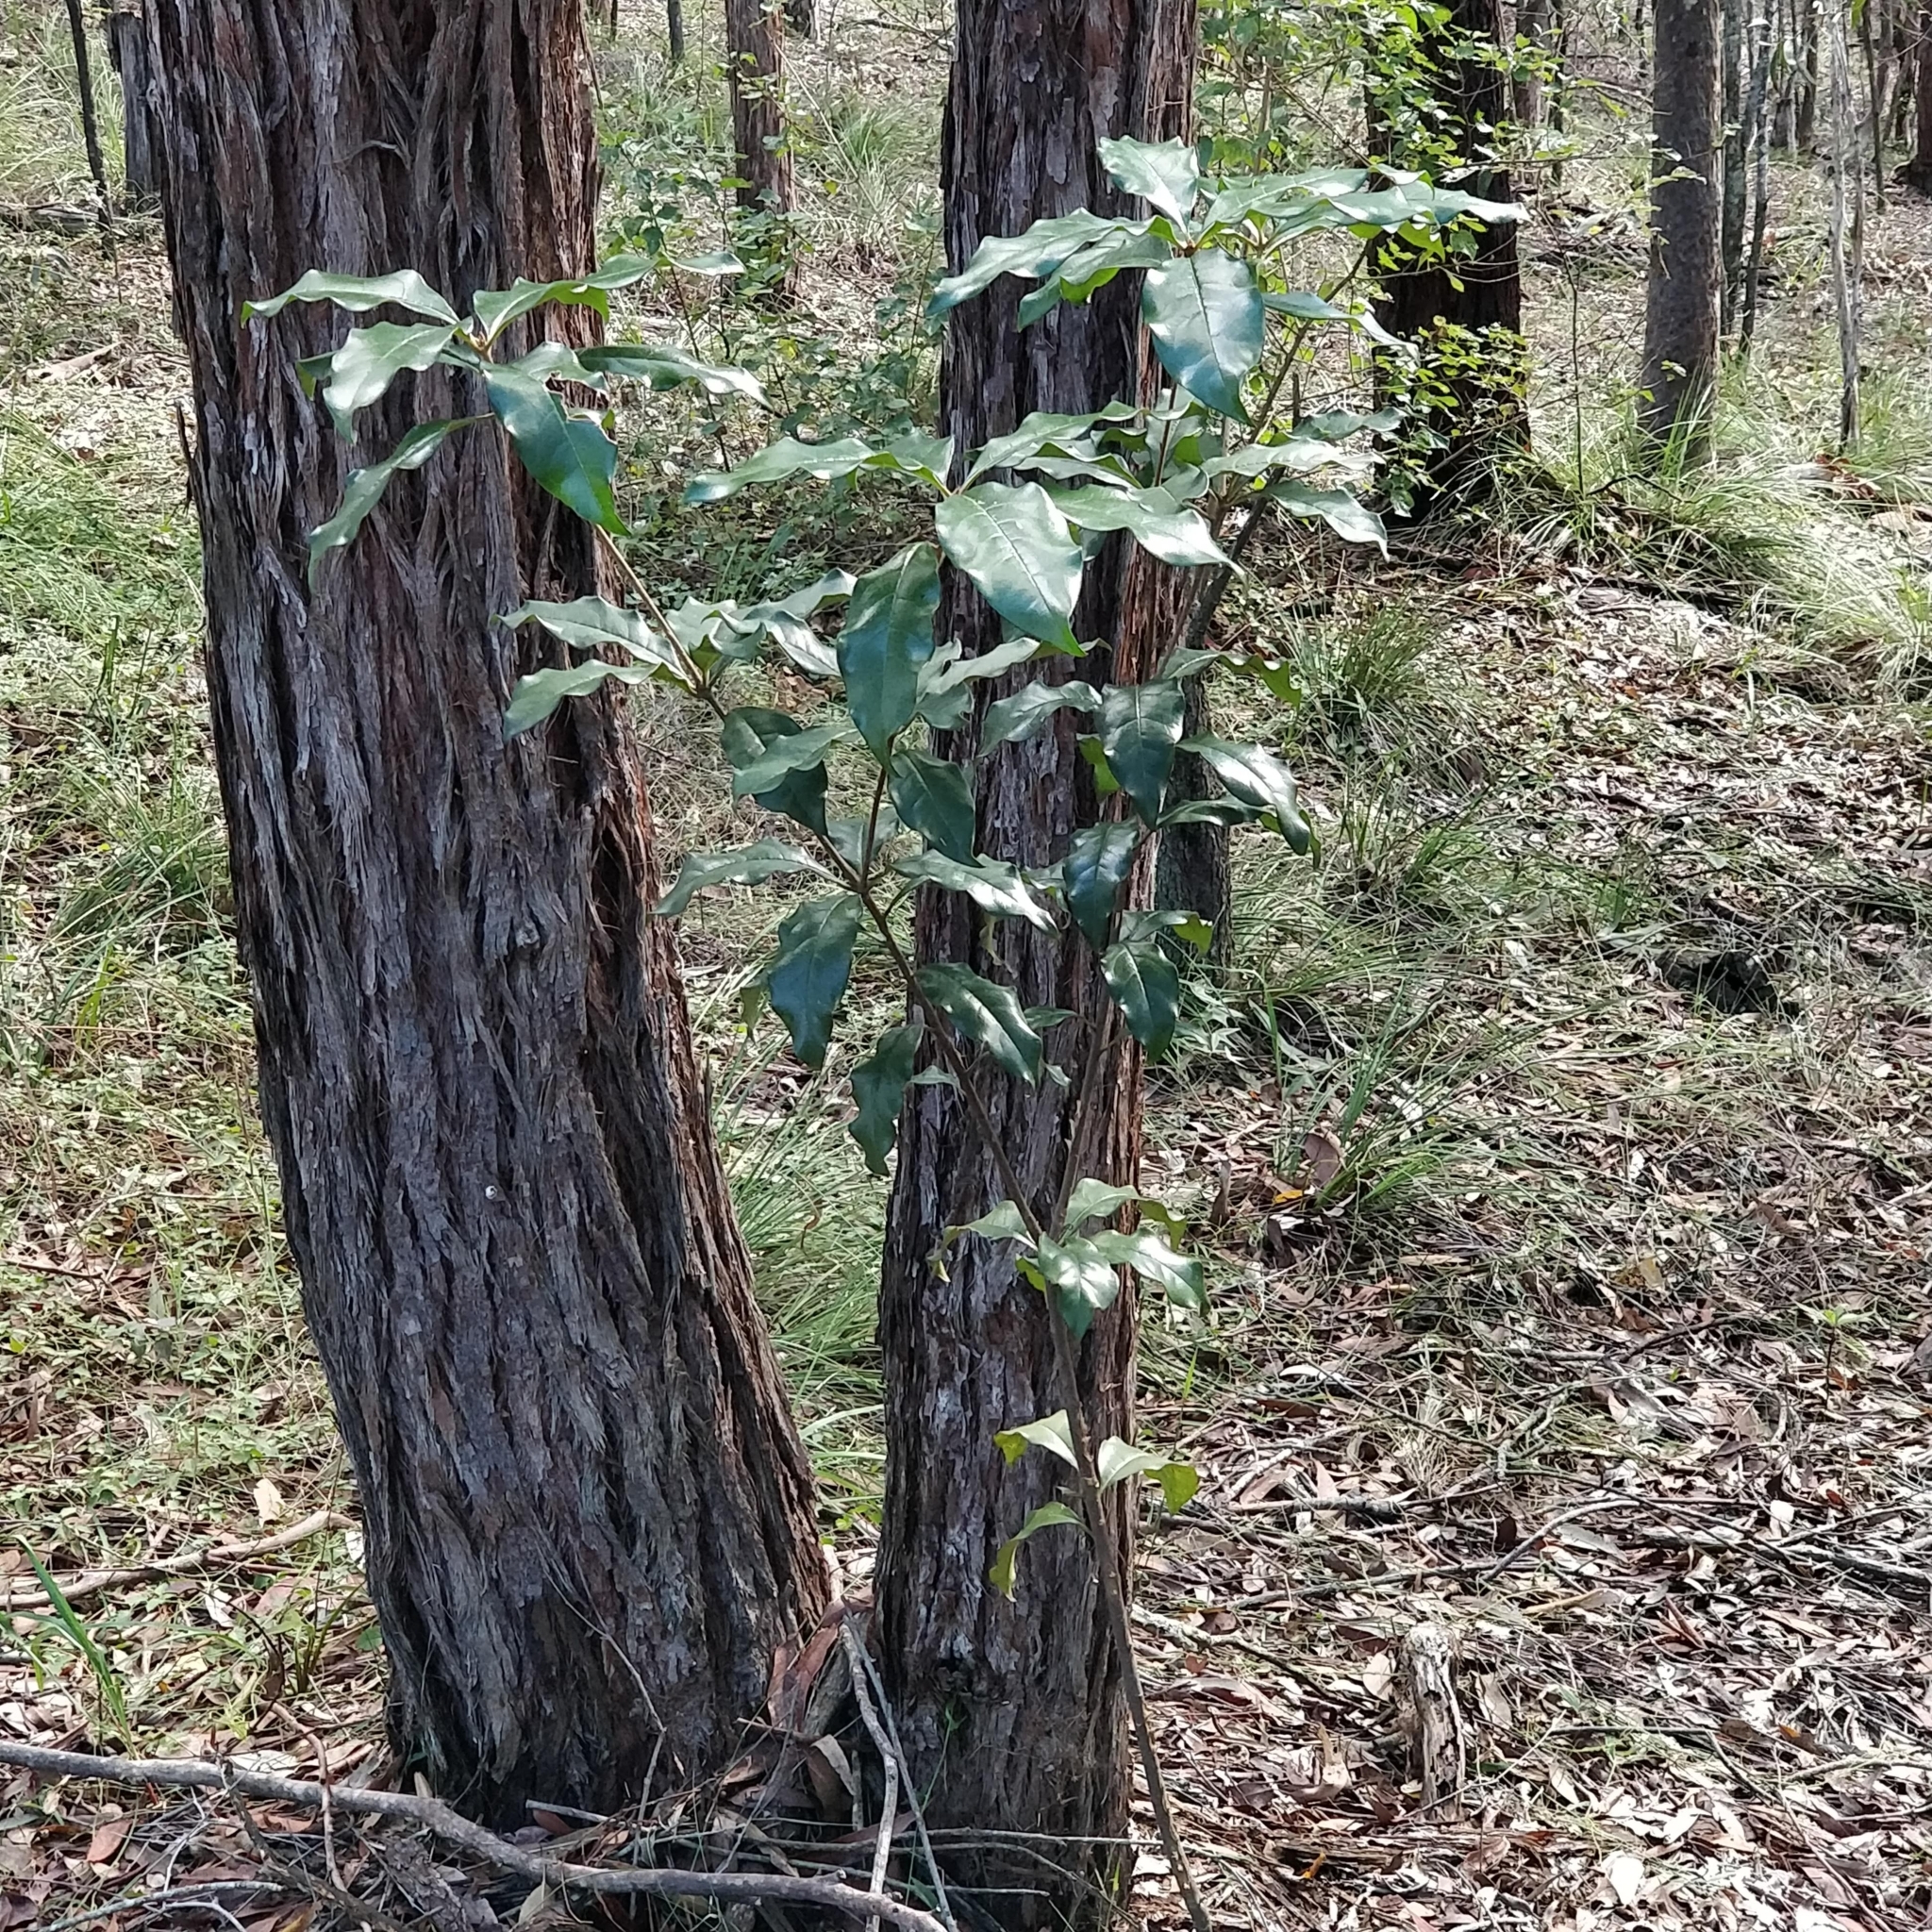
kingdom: Plantae
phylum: Tracheophyta
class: Magnoliopsida
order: Apiales
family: Pittosporaceae
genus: Pittosporum
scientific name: Pittosporum undulatum
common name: Australian cheesewood
